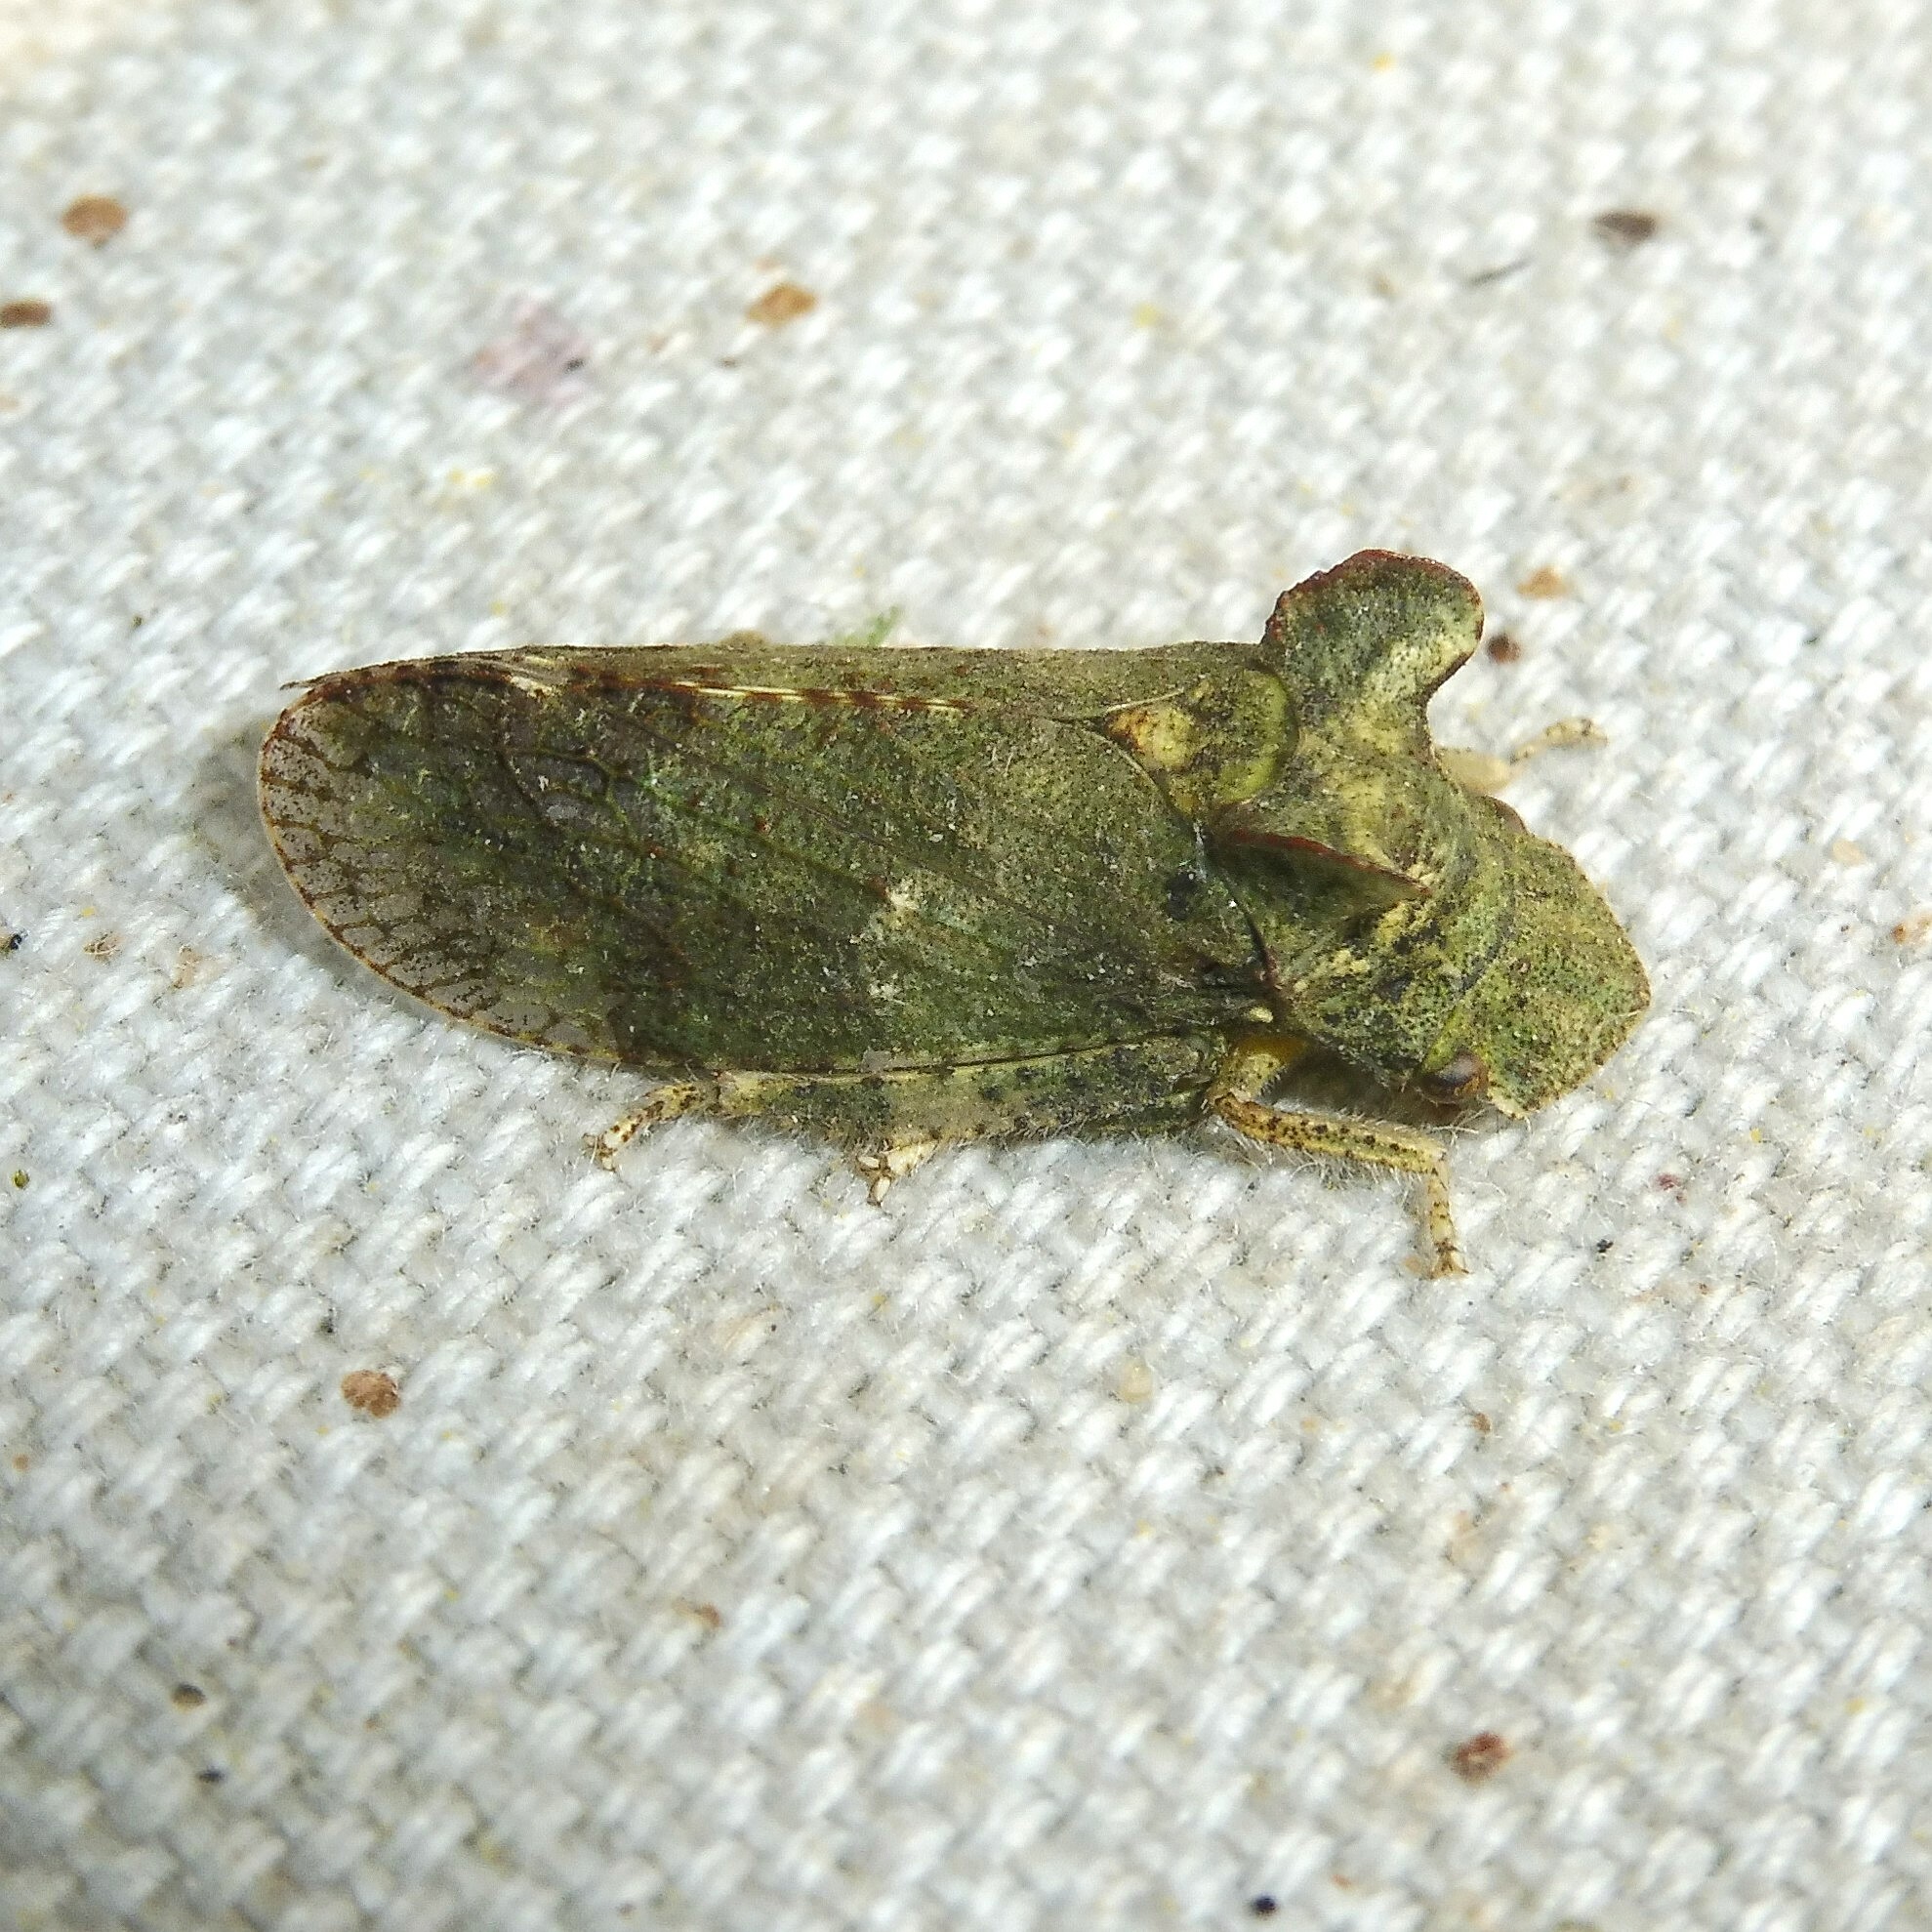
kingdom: Animalia
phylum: Arthropoda
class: Insecta
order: Hemiptera
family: Cicadellidae
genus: Ledra
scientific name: Ledra aurita
